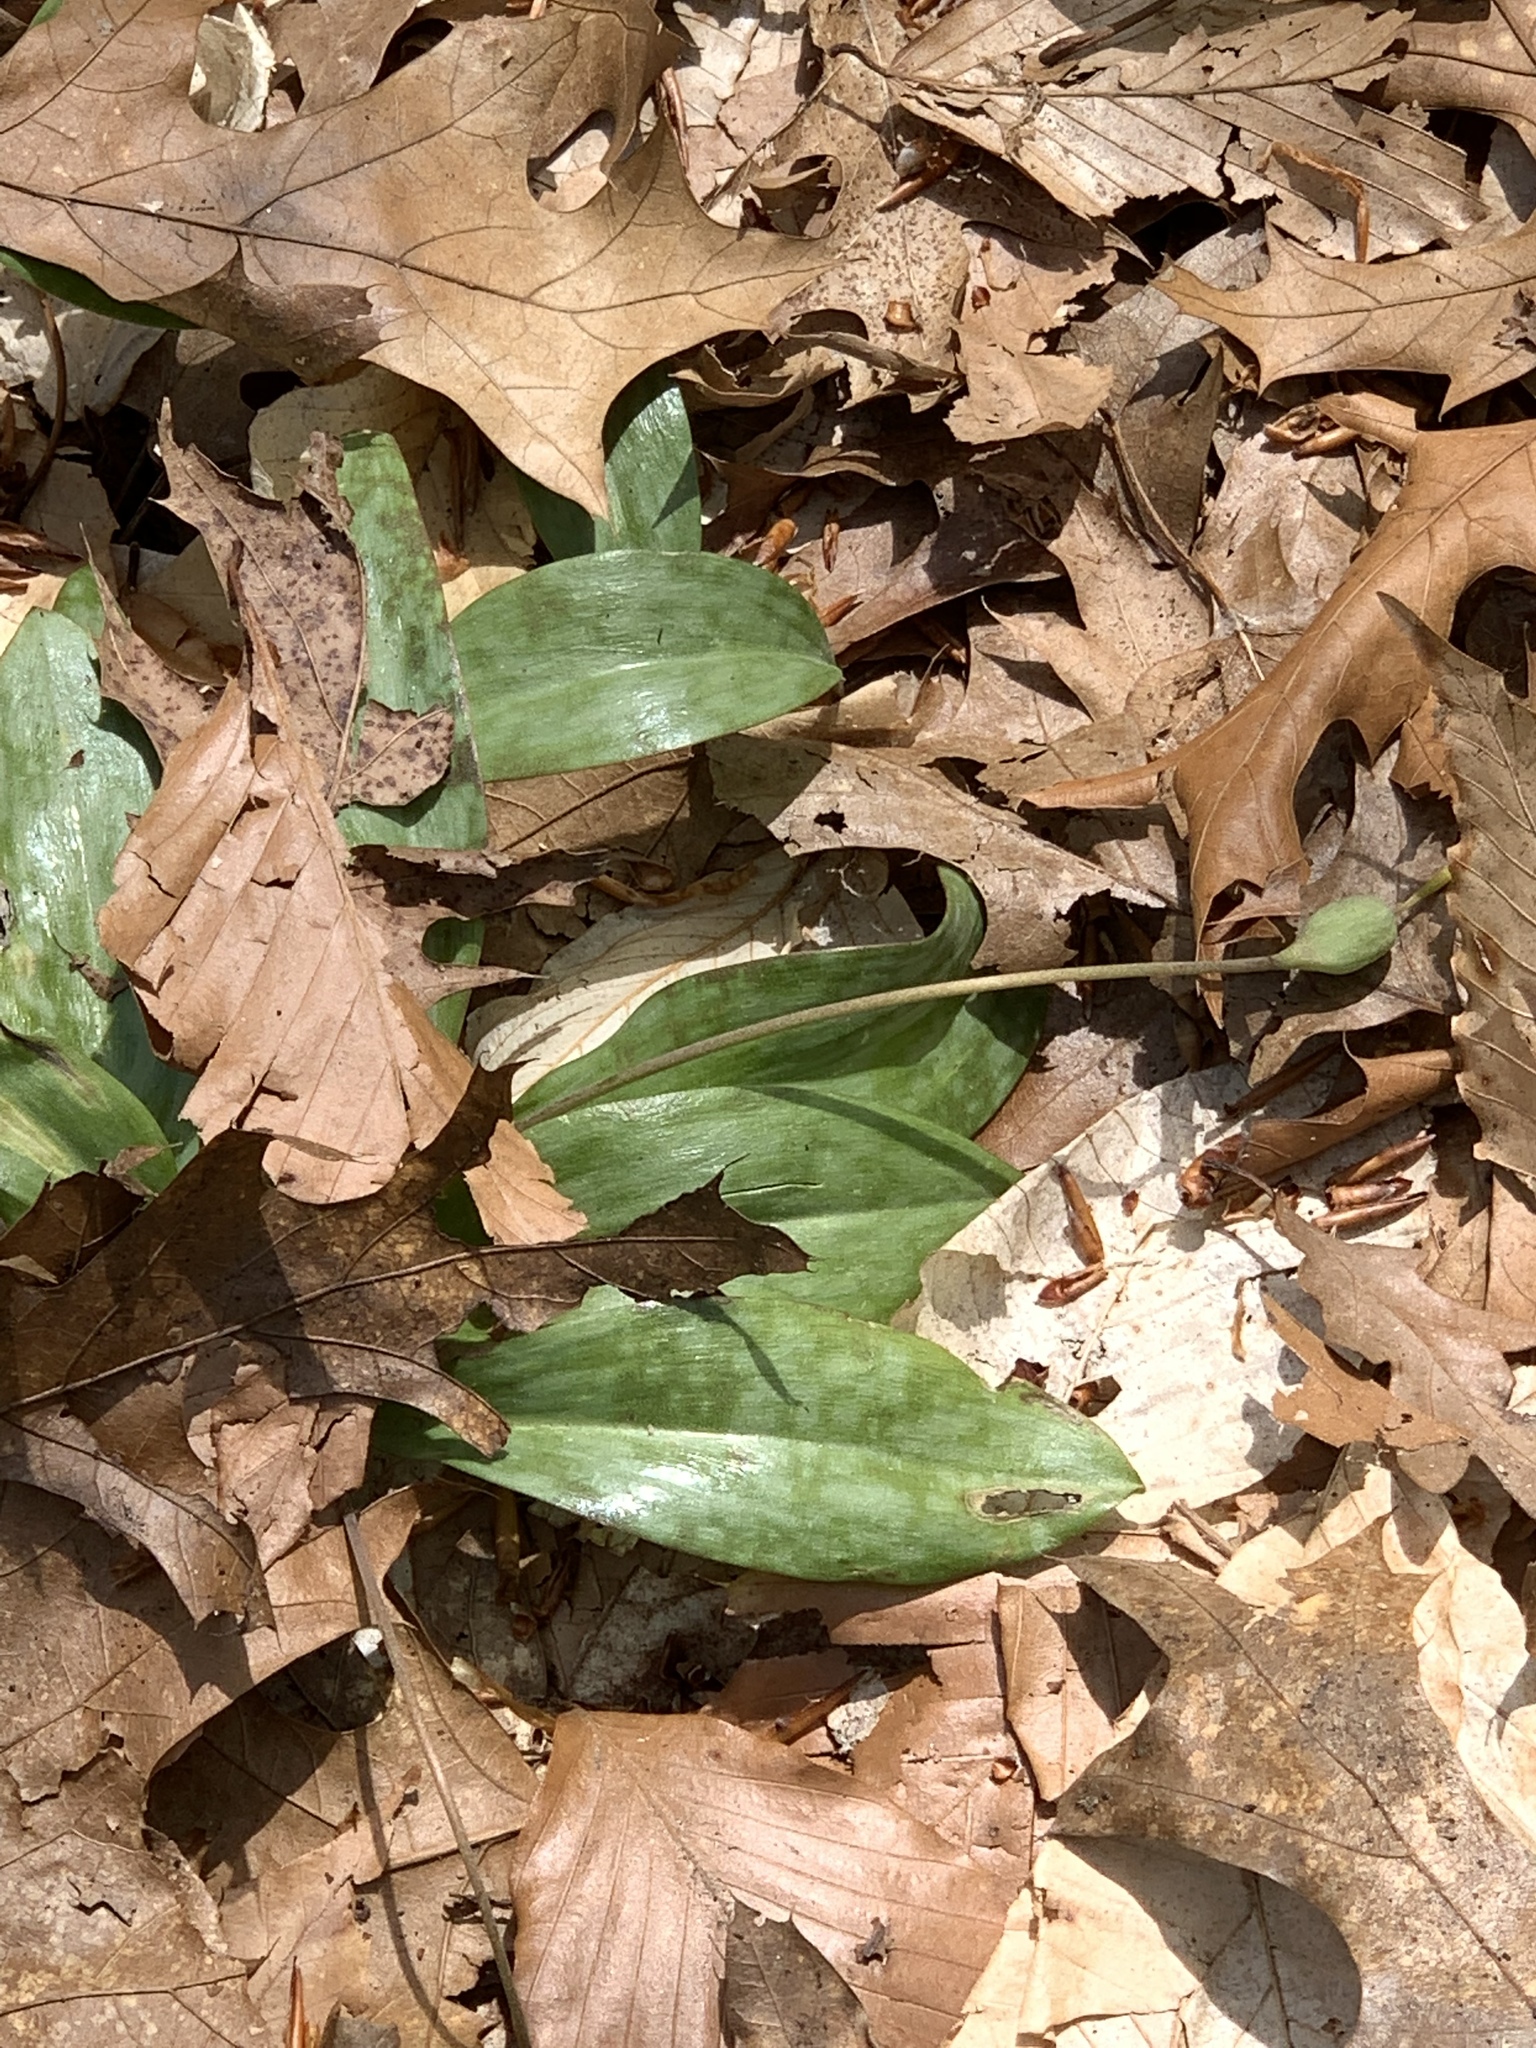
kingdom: Plantae
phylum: Tracheophyta
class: Liliopsida
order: Liliales
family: Liliaceae
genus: Erythronium
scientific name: Erythronium americanum
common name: Yellow adder's-tongue
